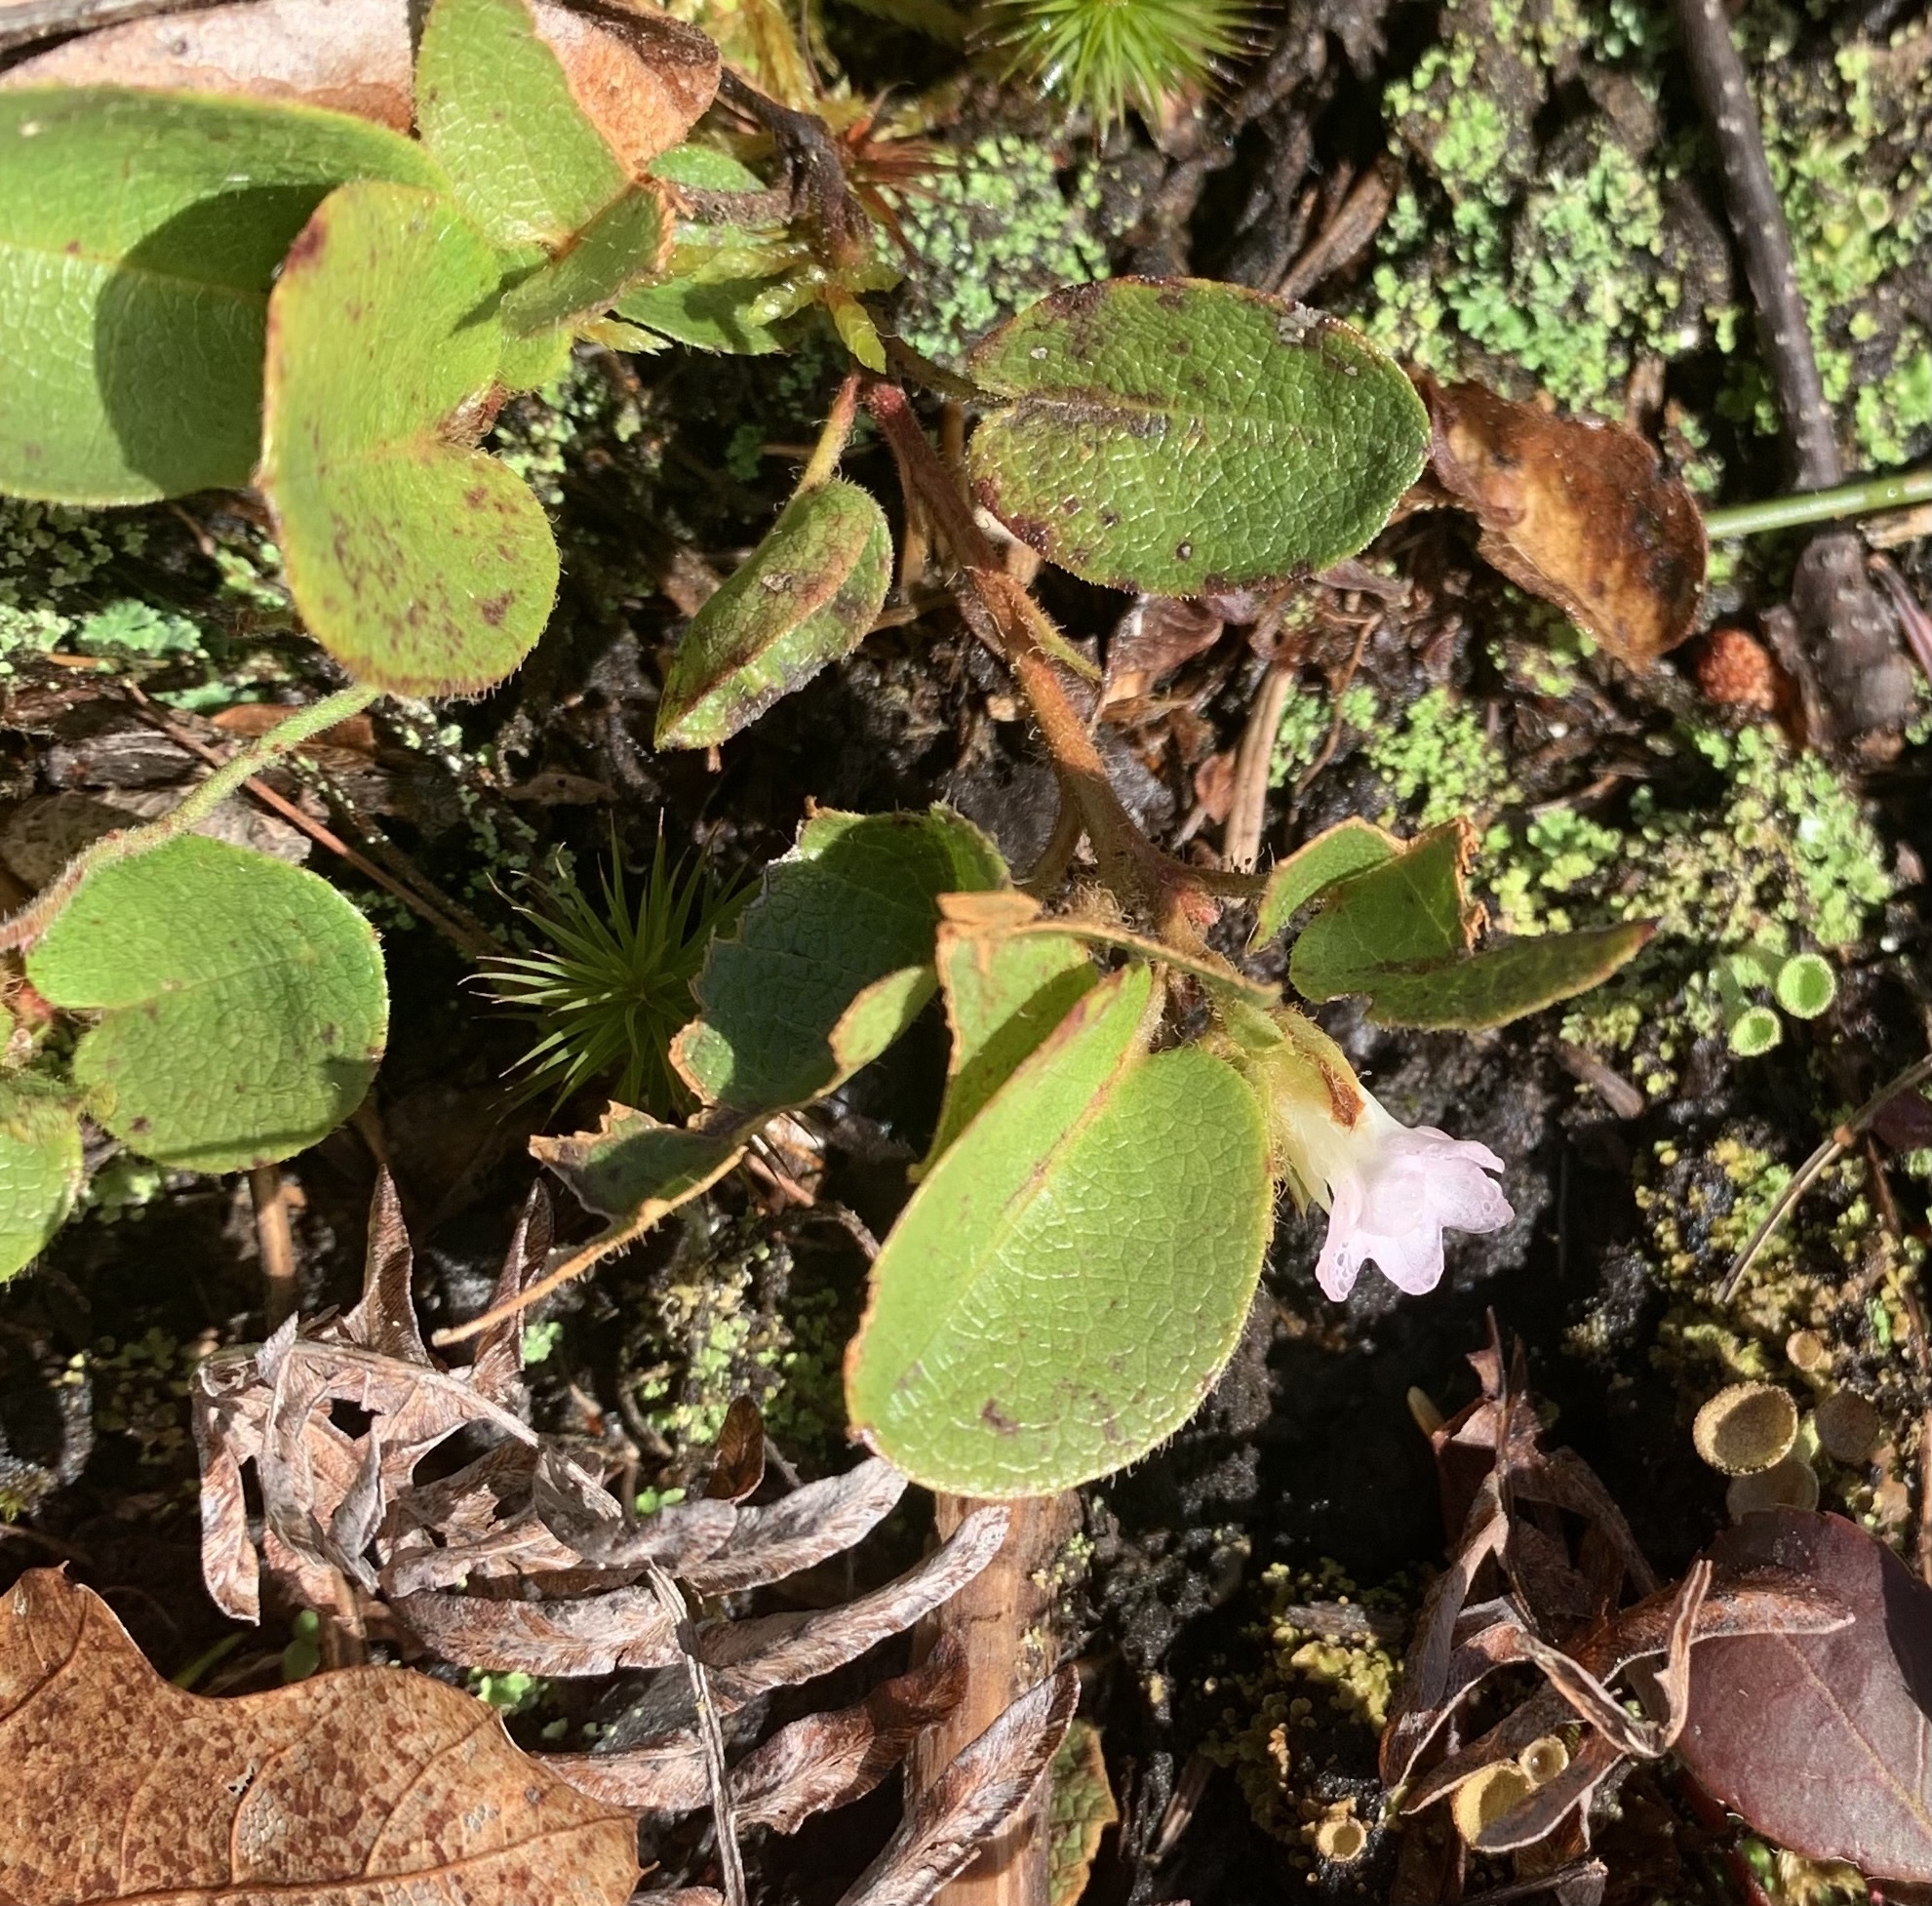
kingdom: Plantae
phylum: Tracheophyta
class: Magnoliopsida
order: Ericales
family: Ericaceae
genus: Epigaea
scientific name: Epigaea repens
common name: Gravelroot
